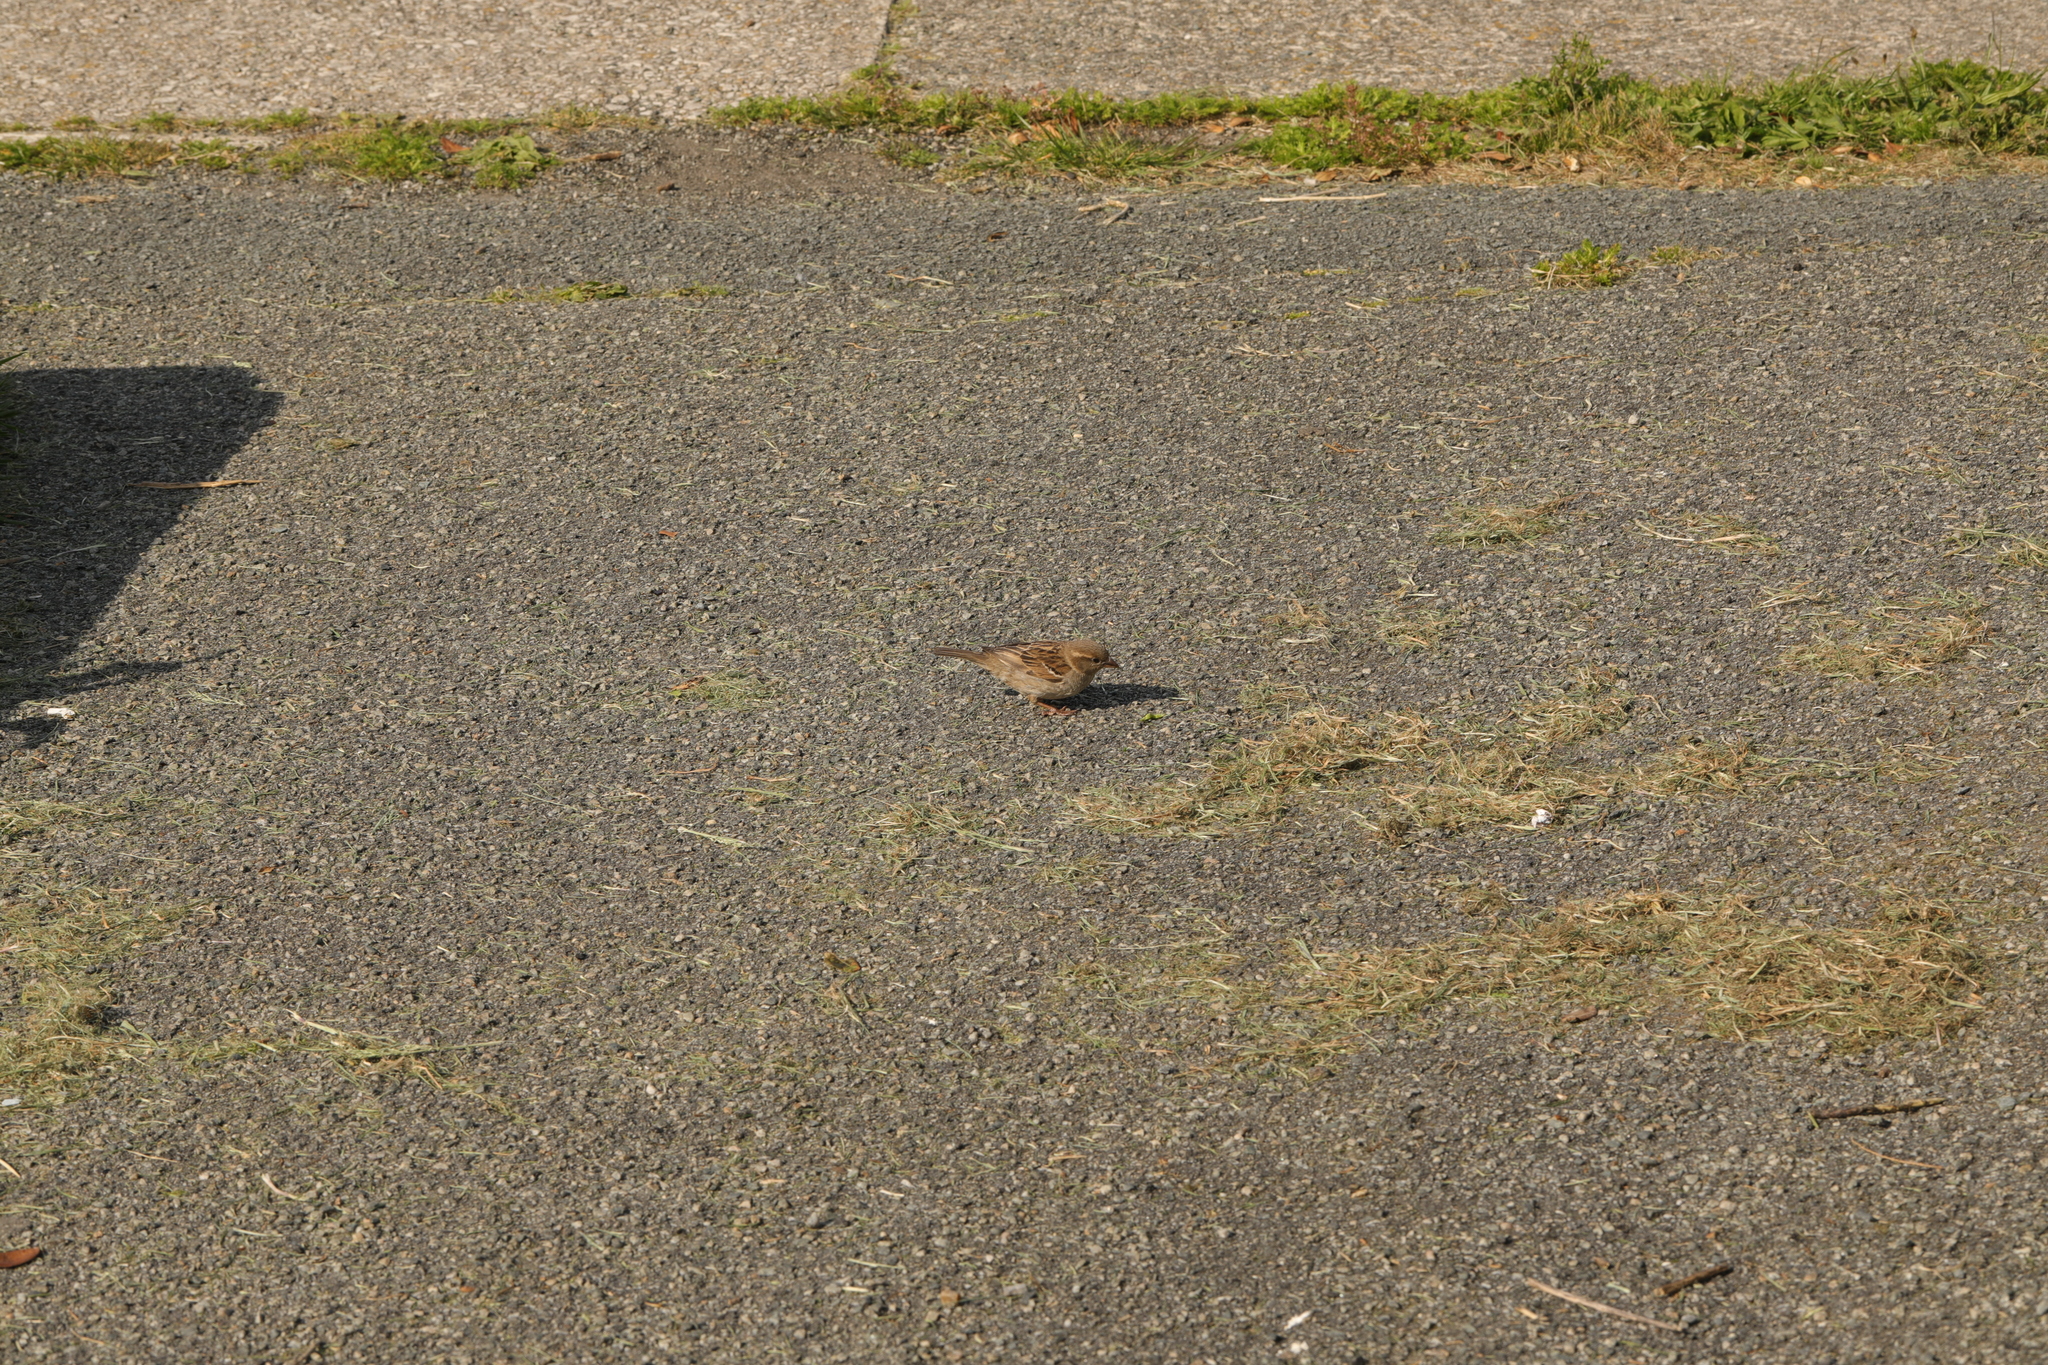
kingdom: Animalia
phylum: Chordata
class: Aves
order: Passeriformes
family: Passeridae
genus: Passer
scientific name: Passer domesticus
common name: House sparrow
